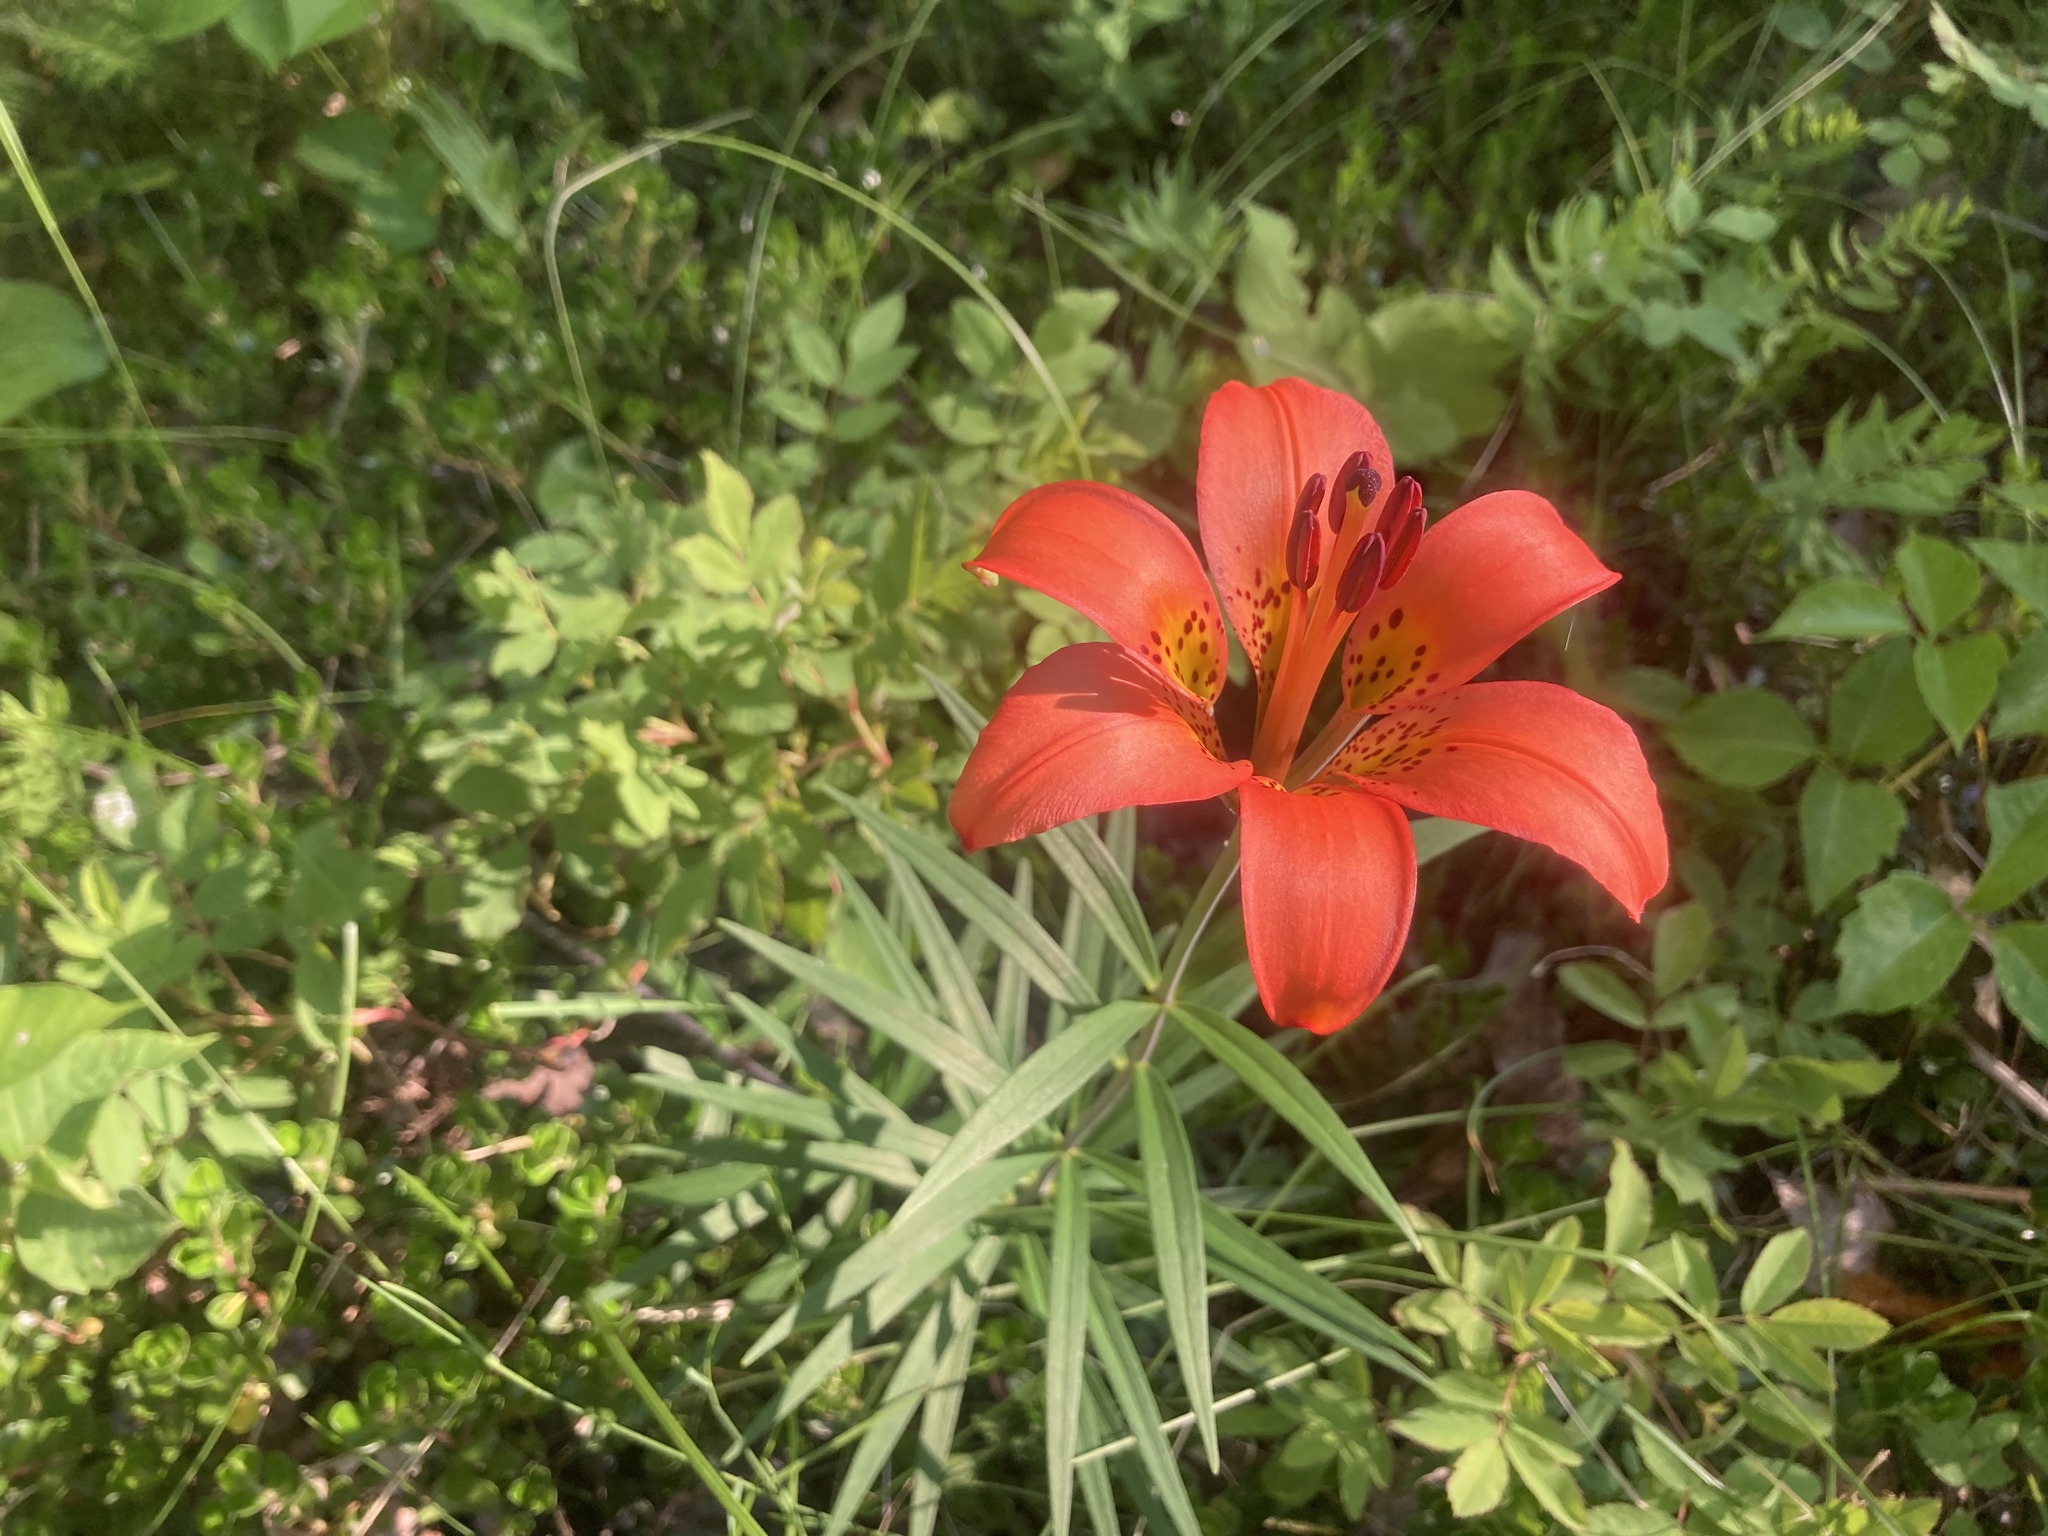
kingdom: Plantae
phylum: Tracheophyta
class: Liliopsida
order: Liliales
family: Liliaceae
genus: Lilium
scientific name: Lilium philadelphicum
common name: Red lily
